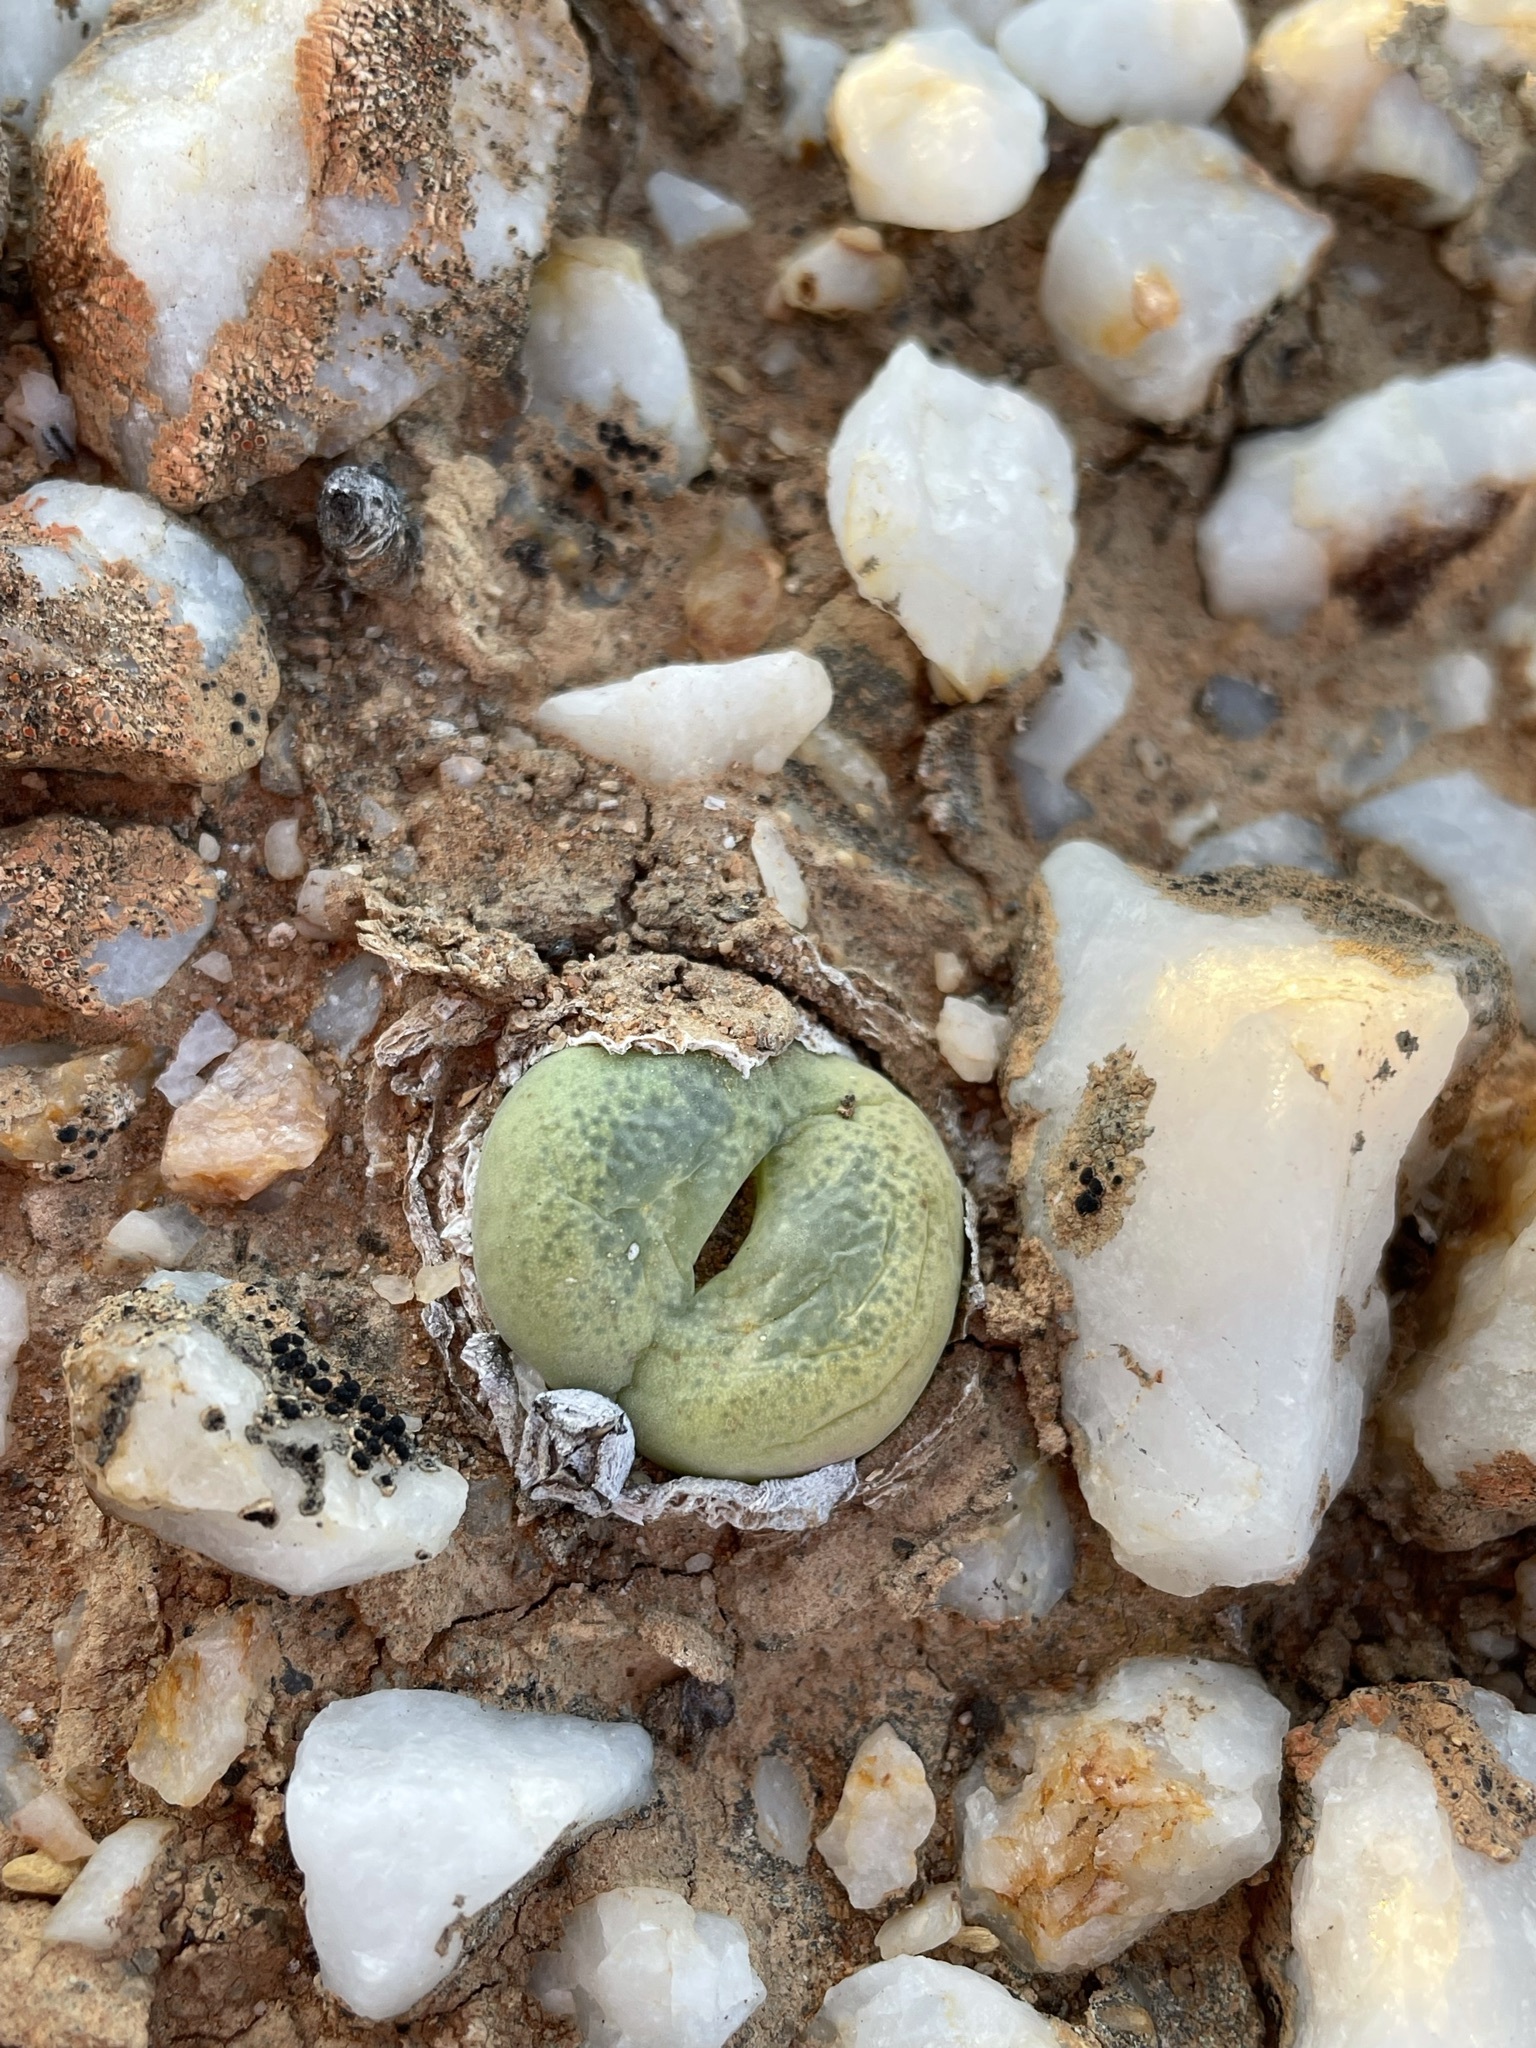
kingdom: Plantae
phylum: Tracheophyta
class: Magnoliopsida
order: Caryophyllales
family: Aizoaceae
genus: Conophytum
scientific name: Conophytum subfenestratum
